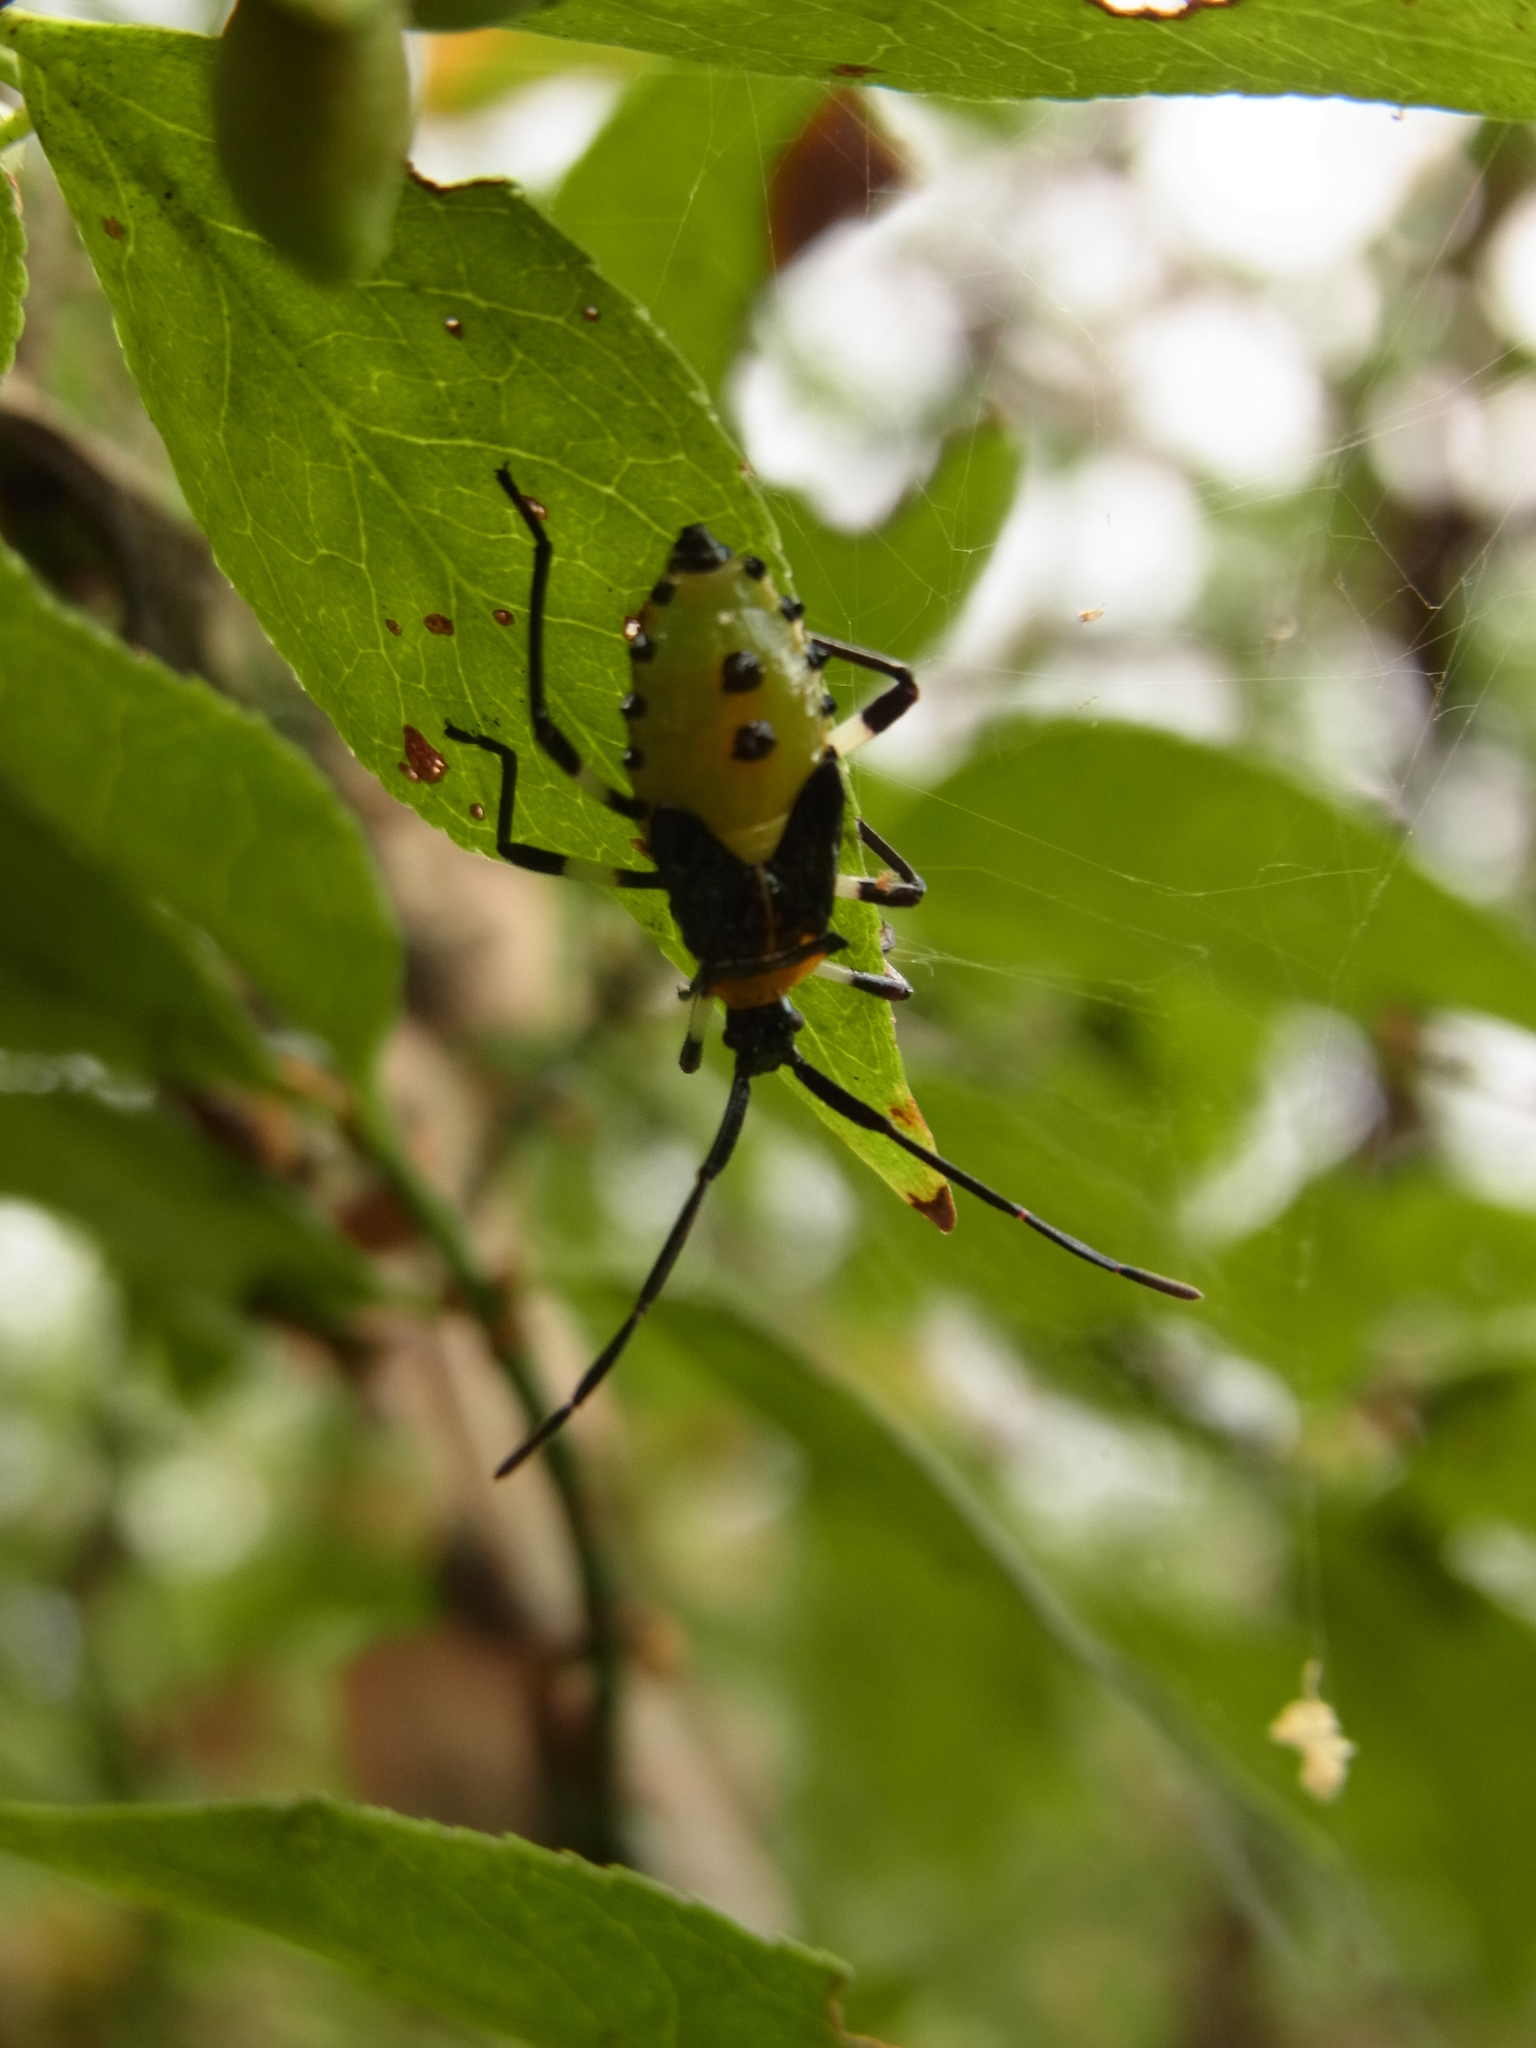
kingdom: Animalia
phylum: Arthropoda
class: Insecta
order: Hemiptera
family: Coreidae
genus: Plinachtus
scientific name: Plinachtus bicoloripes
